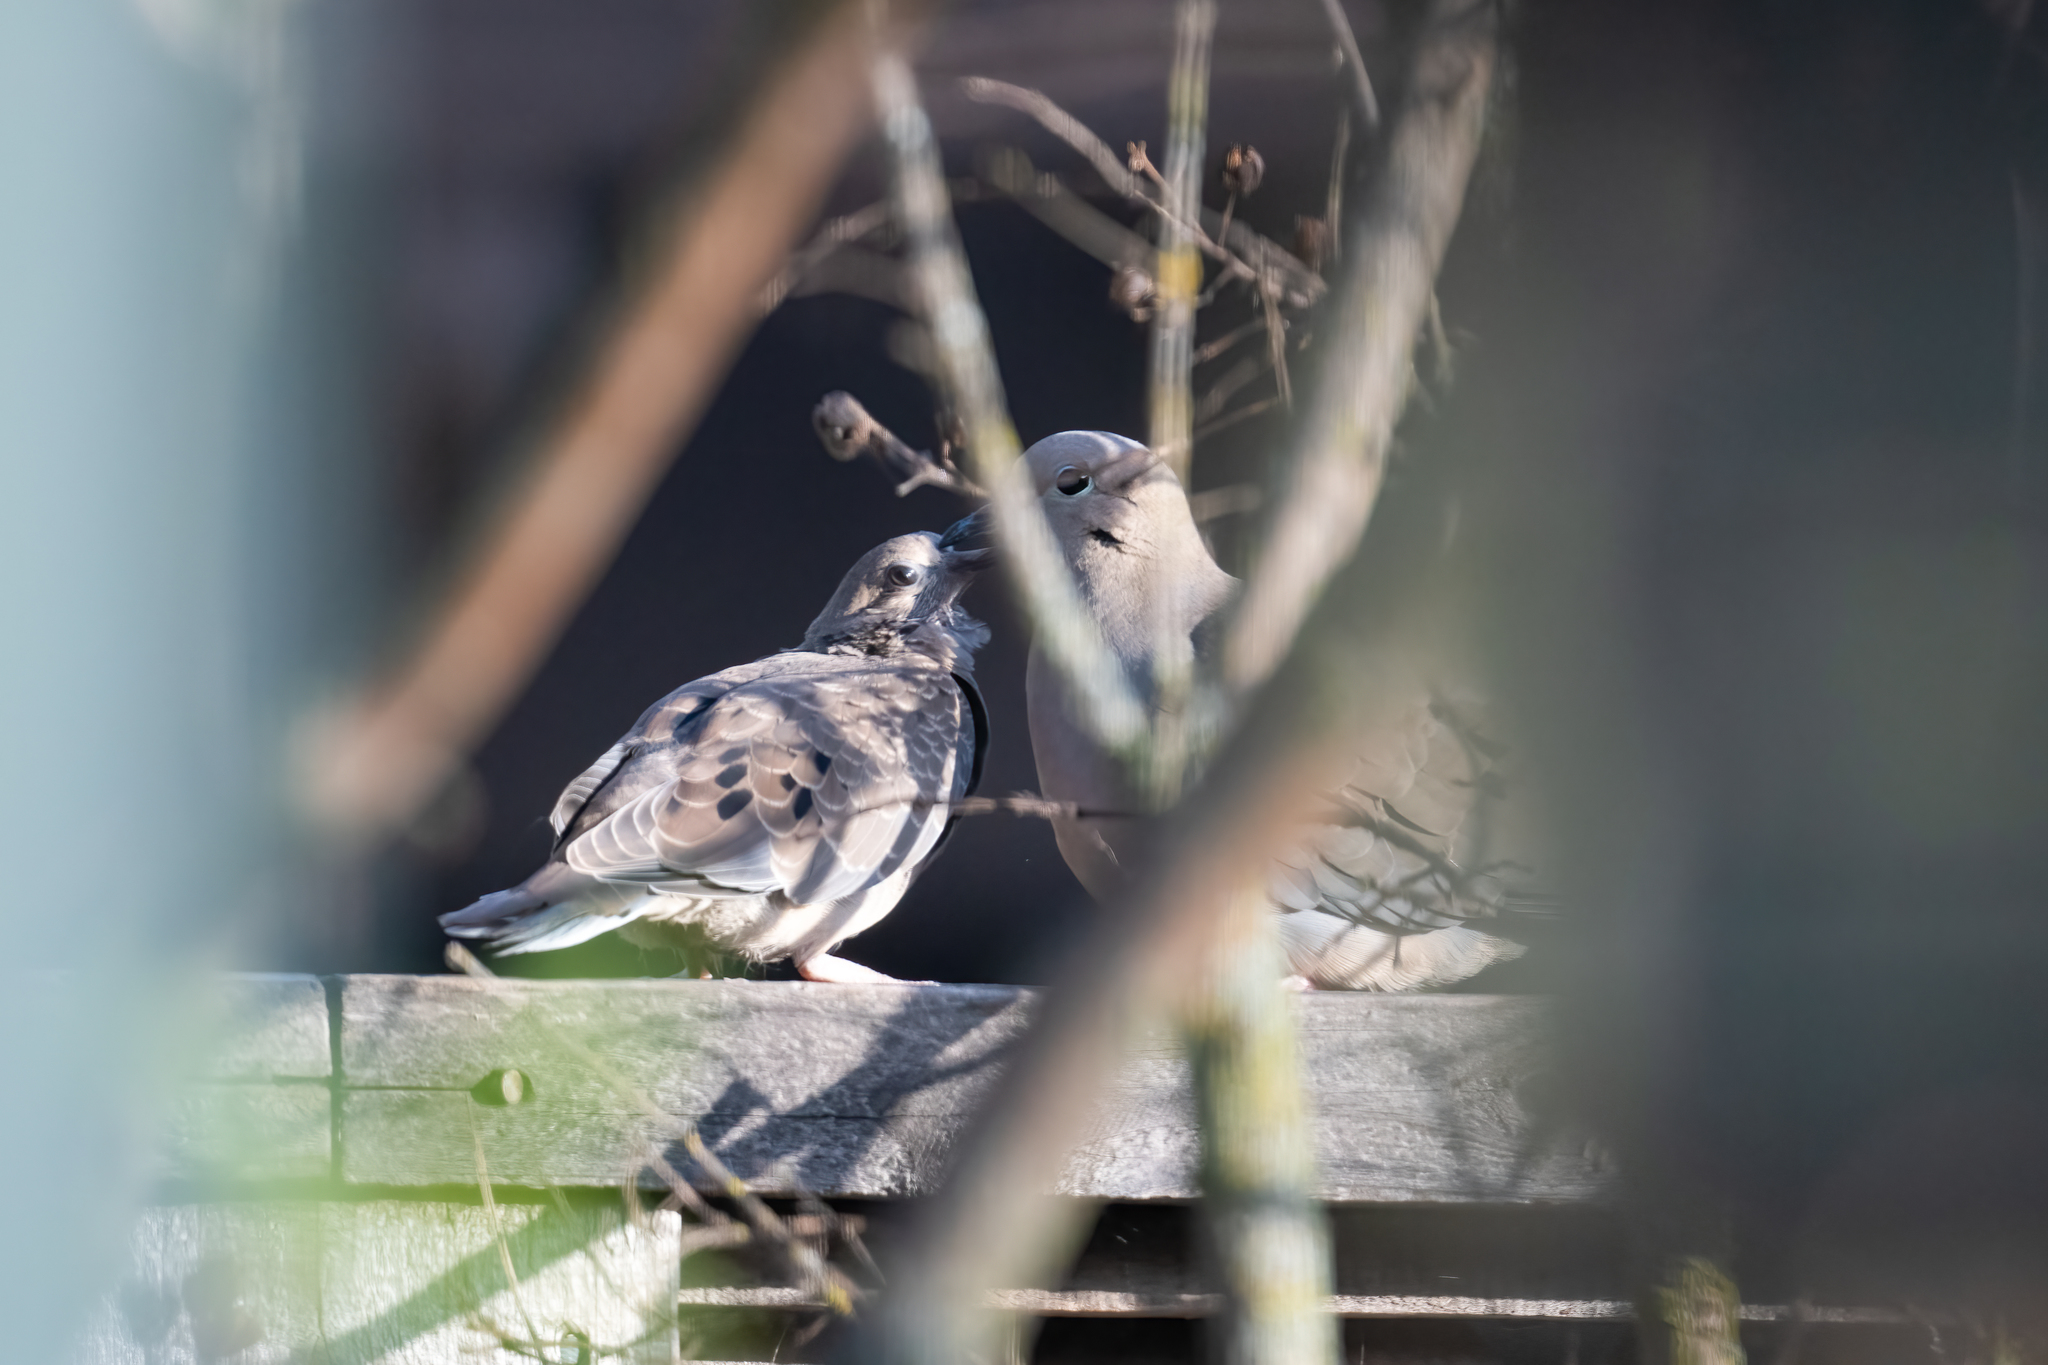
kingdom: Animalia
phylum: Chordata
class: Aves
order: Columbiformes
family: Columbidae
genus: Zenaida
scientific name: Zenaida macroura
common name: Mourning dove
